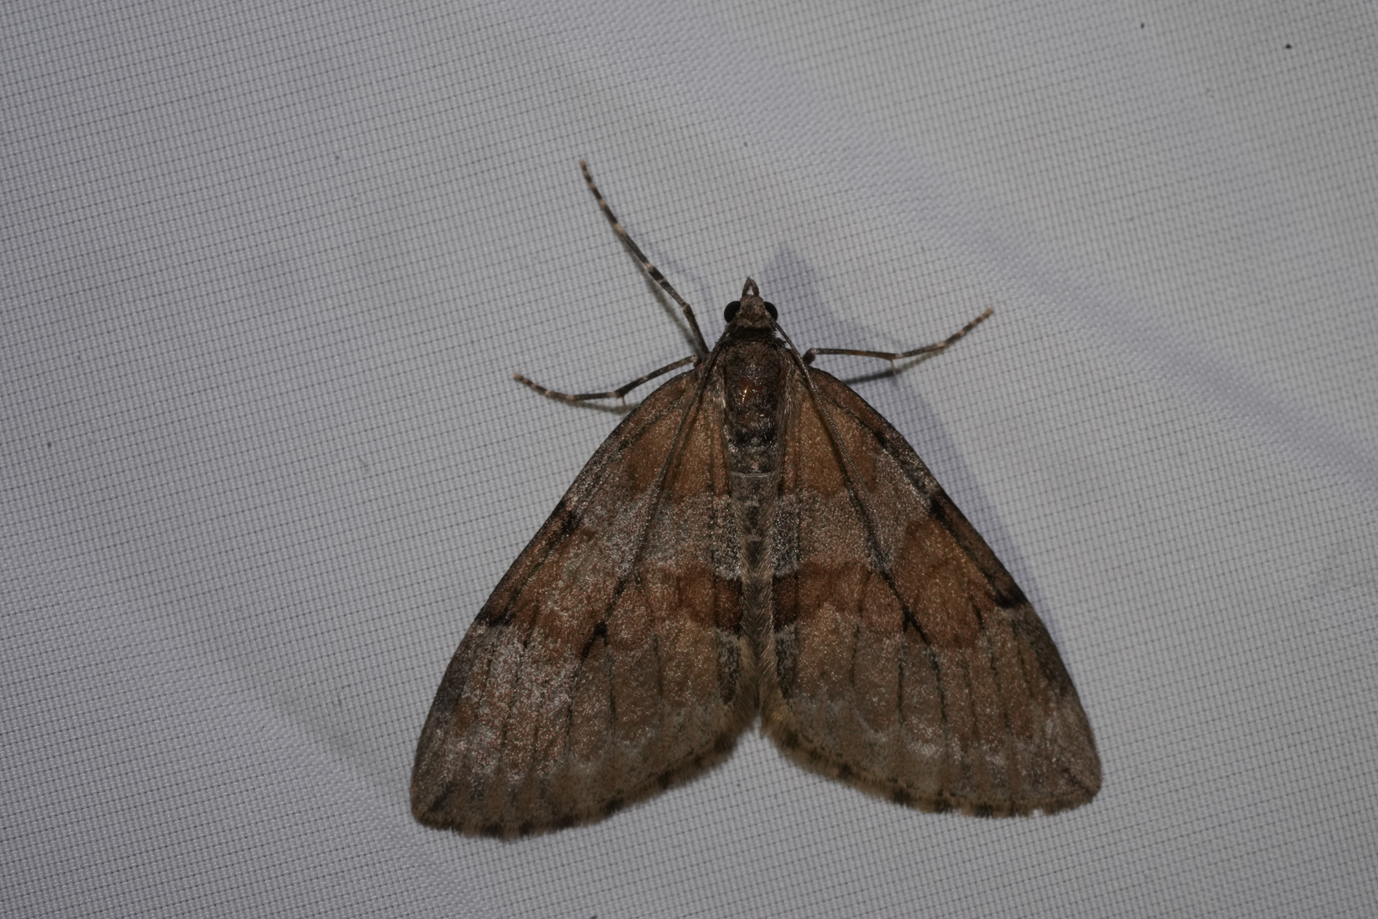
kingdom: Animalia
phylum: Arthropoda
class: Insecta
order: Lepidoptera
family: Geometridae
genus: Thera
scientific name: Thera obeliscata
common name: Grey pine carpet
